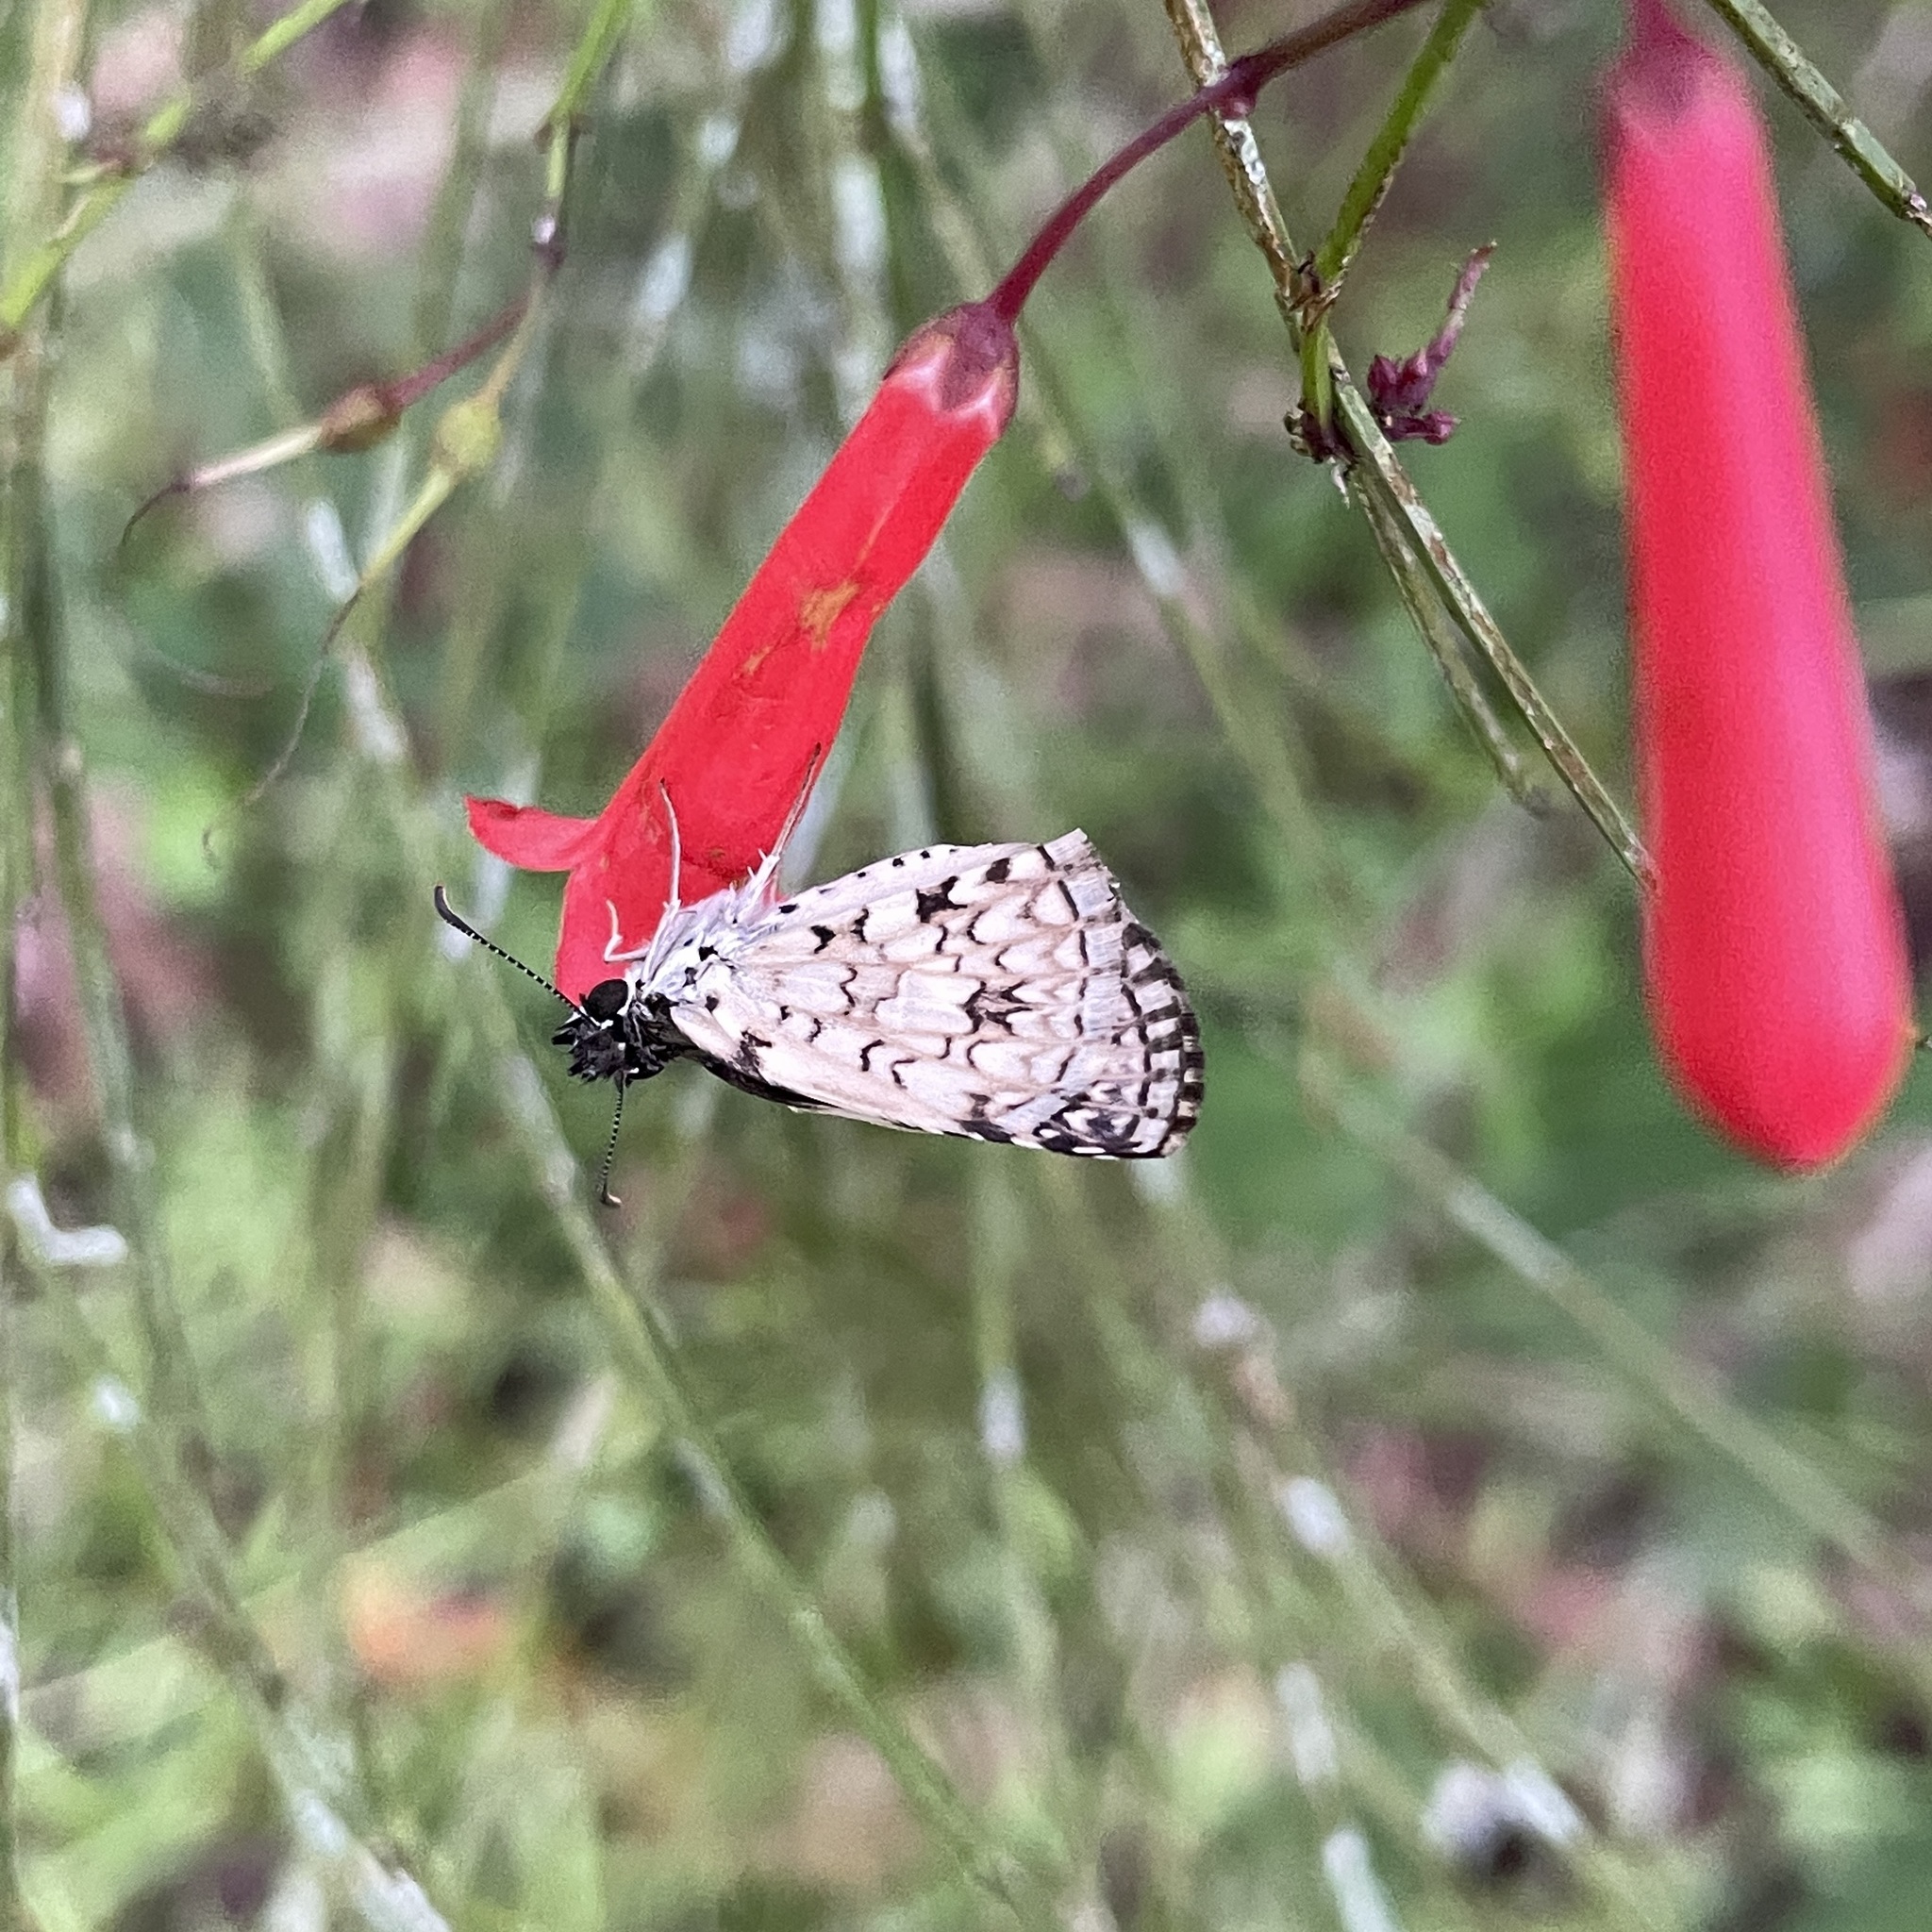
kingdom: Animalia
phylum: Arthropoda
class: Insecta
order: Lepidoptera
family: Hesperiidae
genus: Pyrgus
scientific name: Pyrgus oileus
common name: Tropical checkered-skipper
